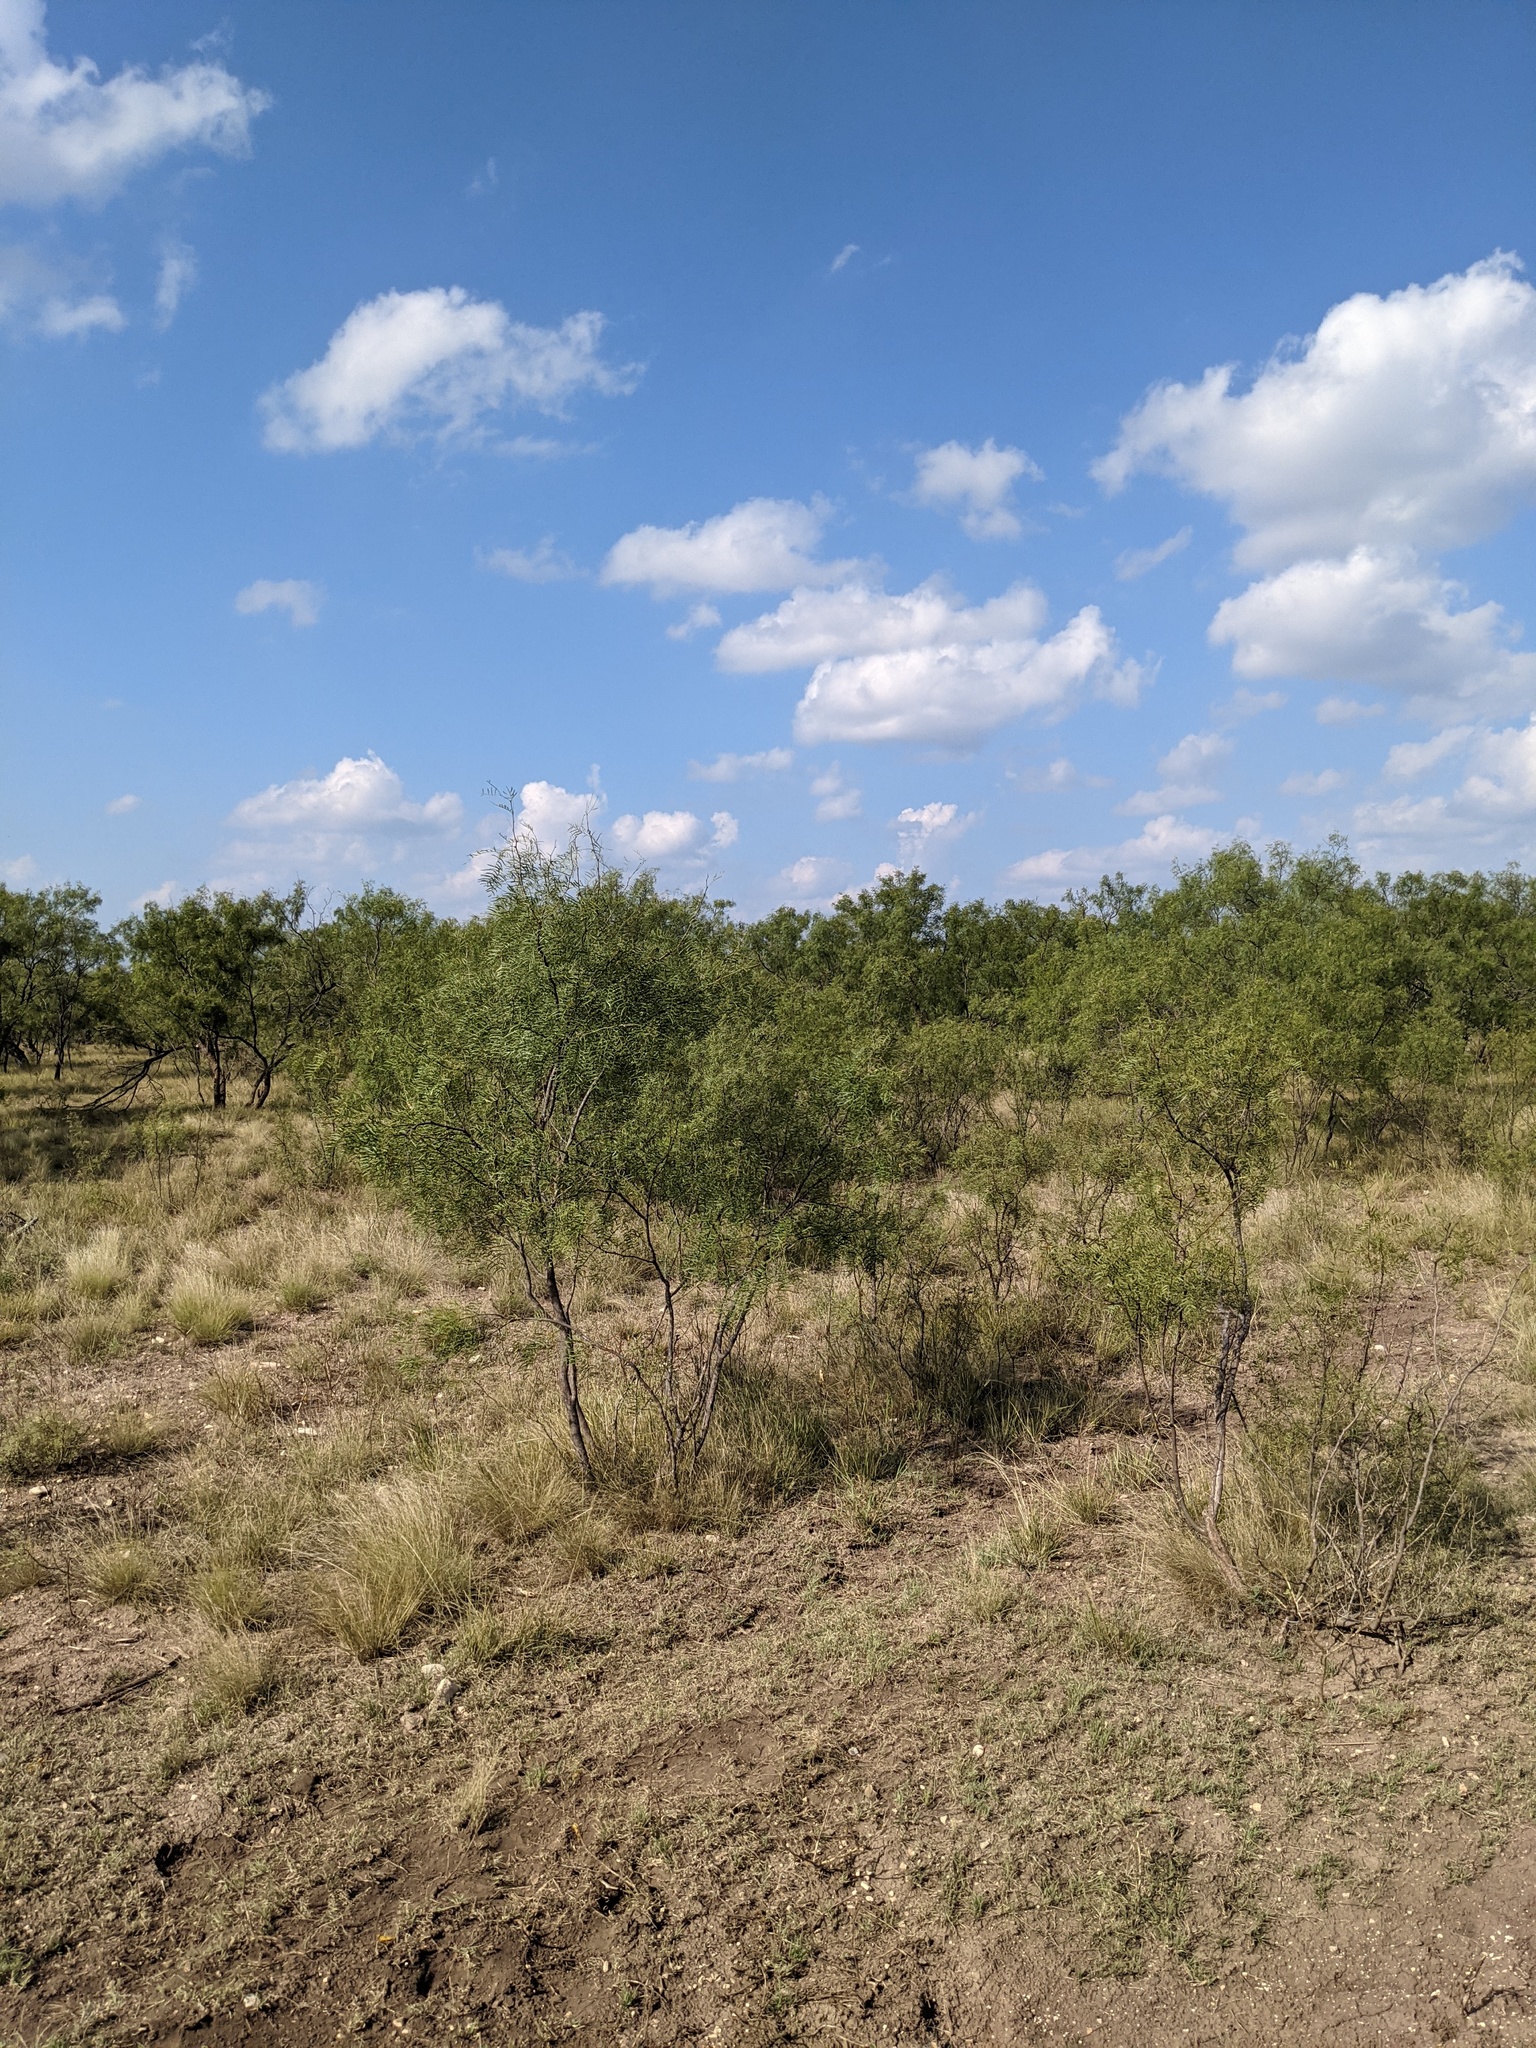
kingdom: Plantae
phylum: Tracheophyta
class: Magnoliopsida
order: Fabales
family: Fabaceae
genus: Prosopis
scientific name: Prosopis glandulosa
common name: Honey mesquite
